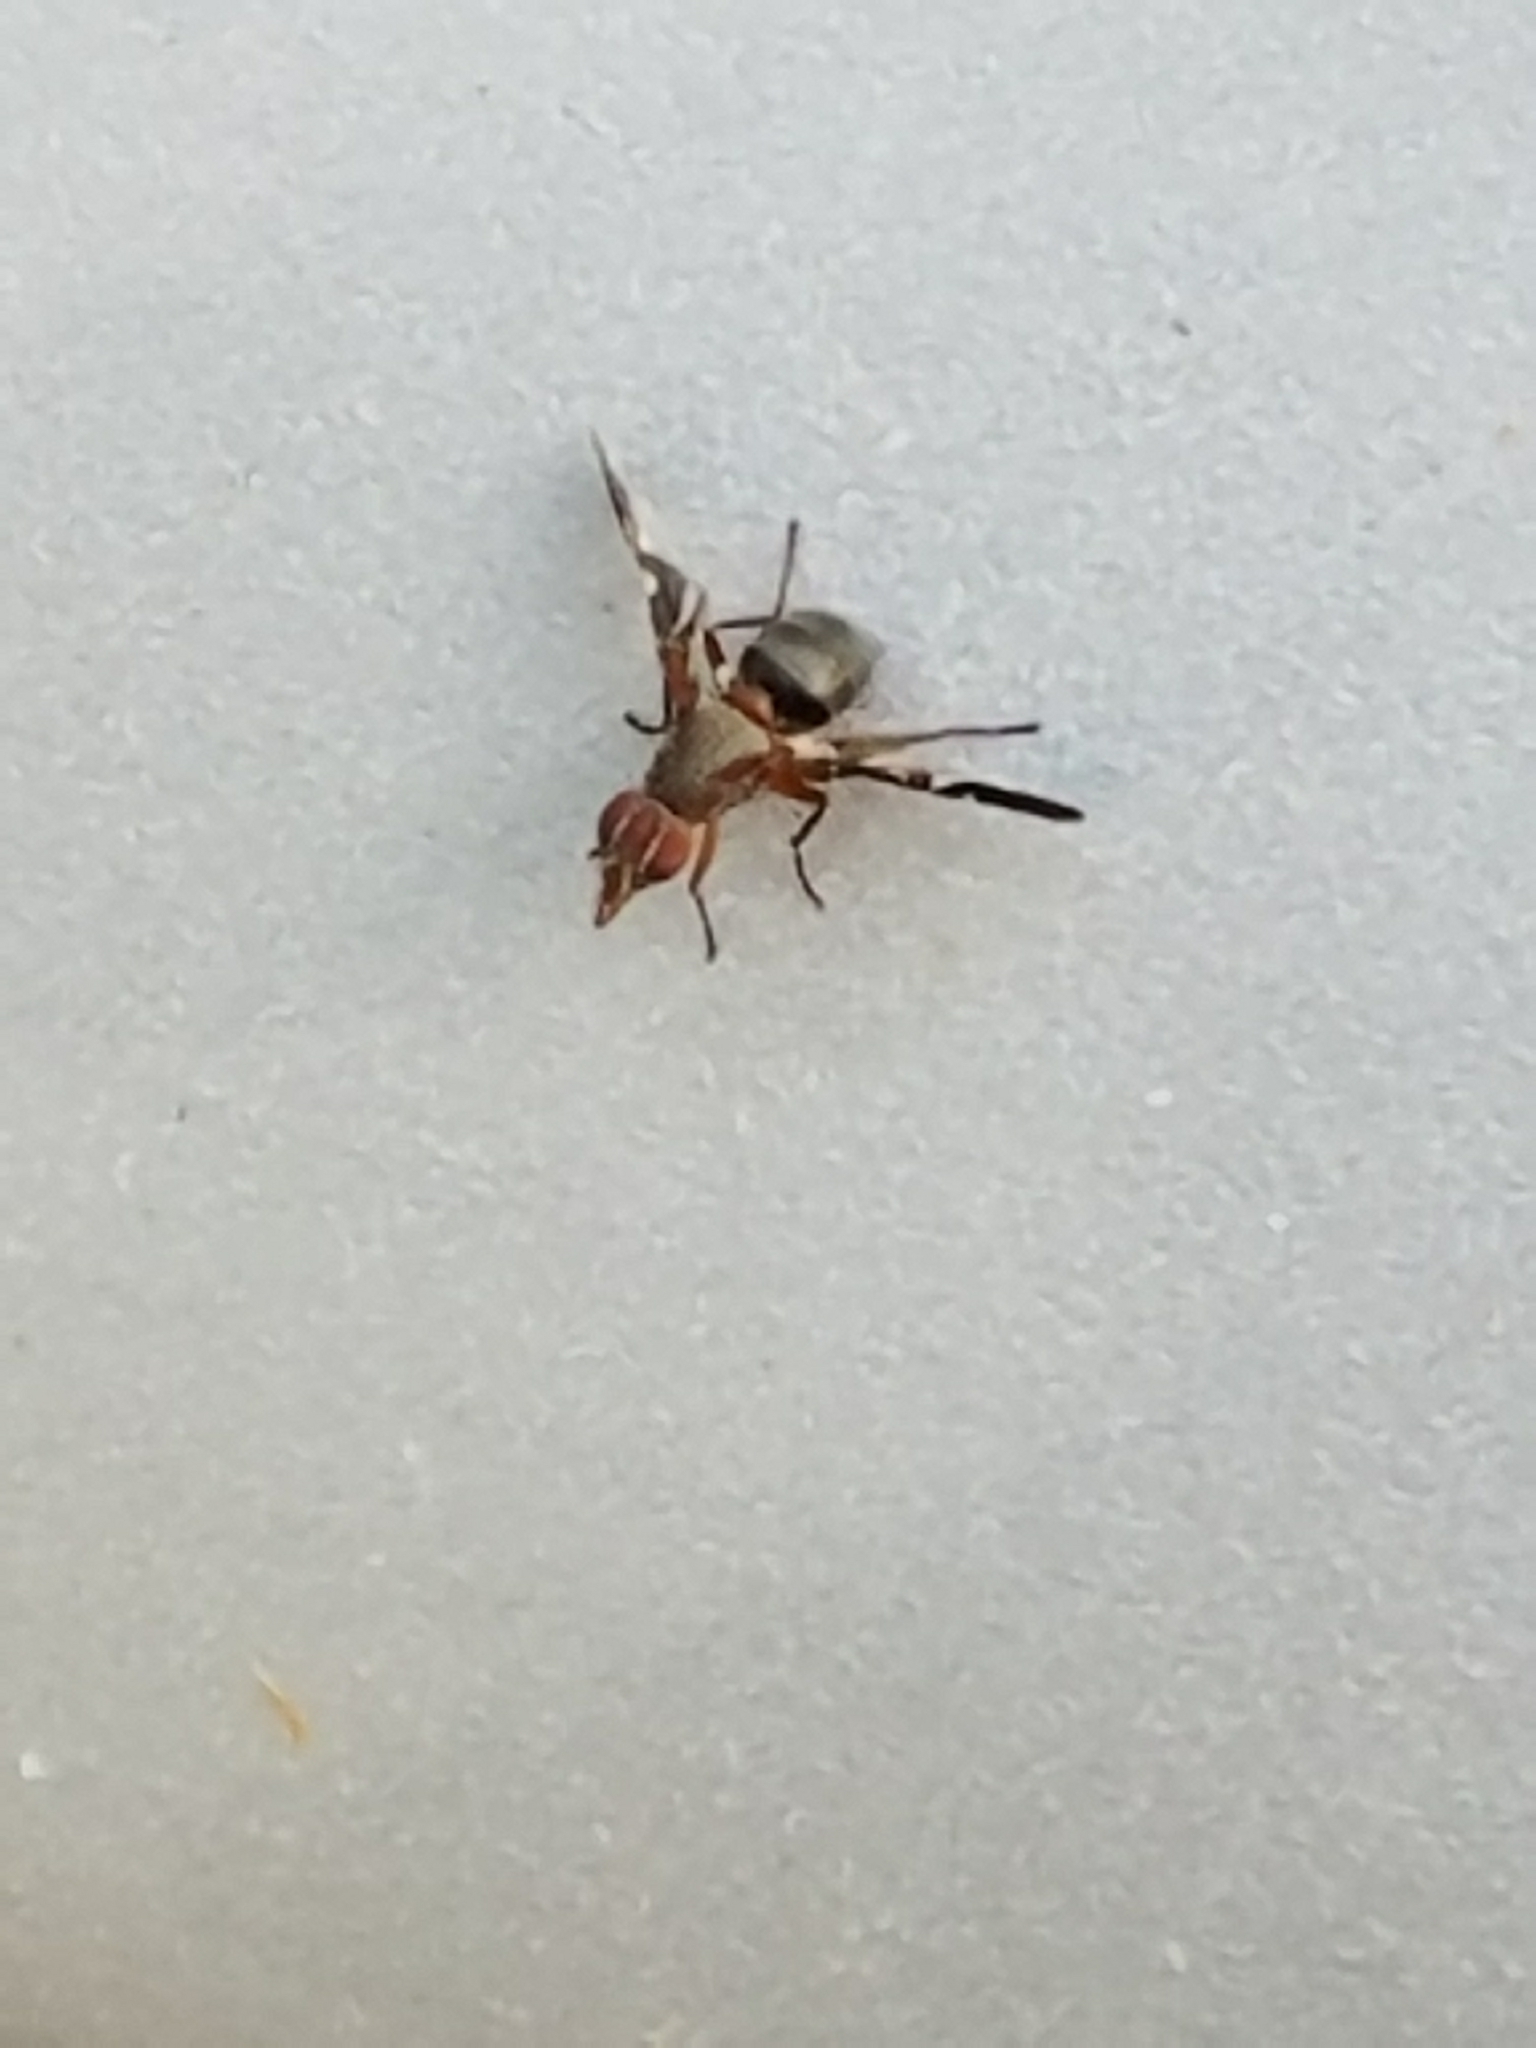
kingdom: Animalia
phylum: Arthropoda
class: Insecta
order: Diptera
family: Ulidiidae
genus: Delphinia
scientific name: Delphinia picta
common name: Common picture-winged fly
